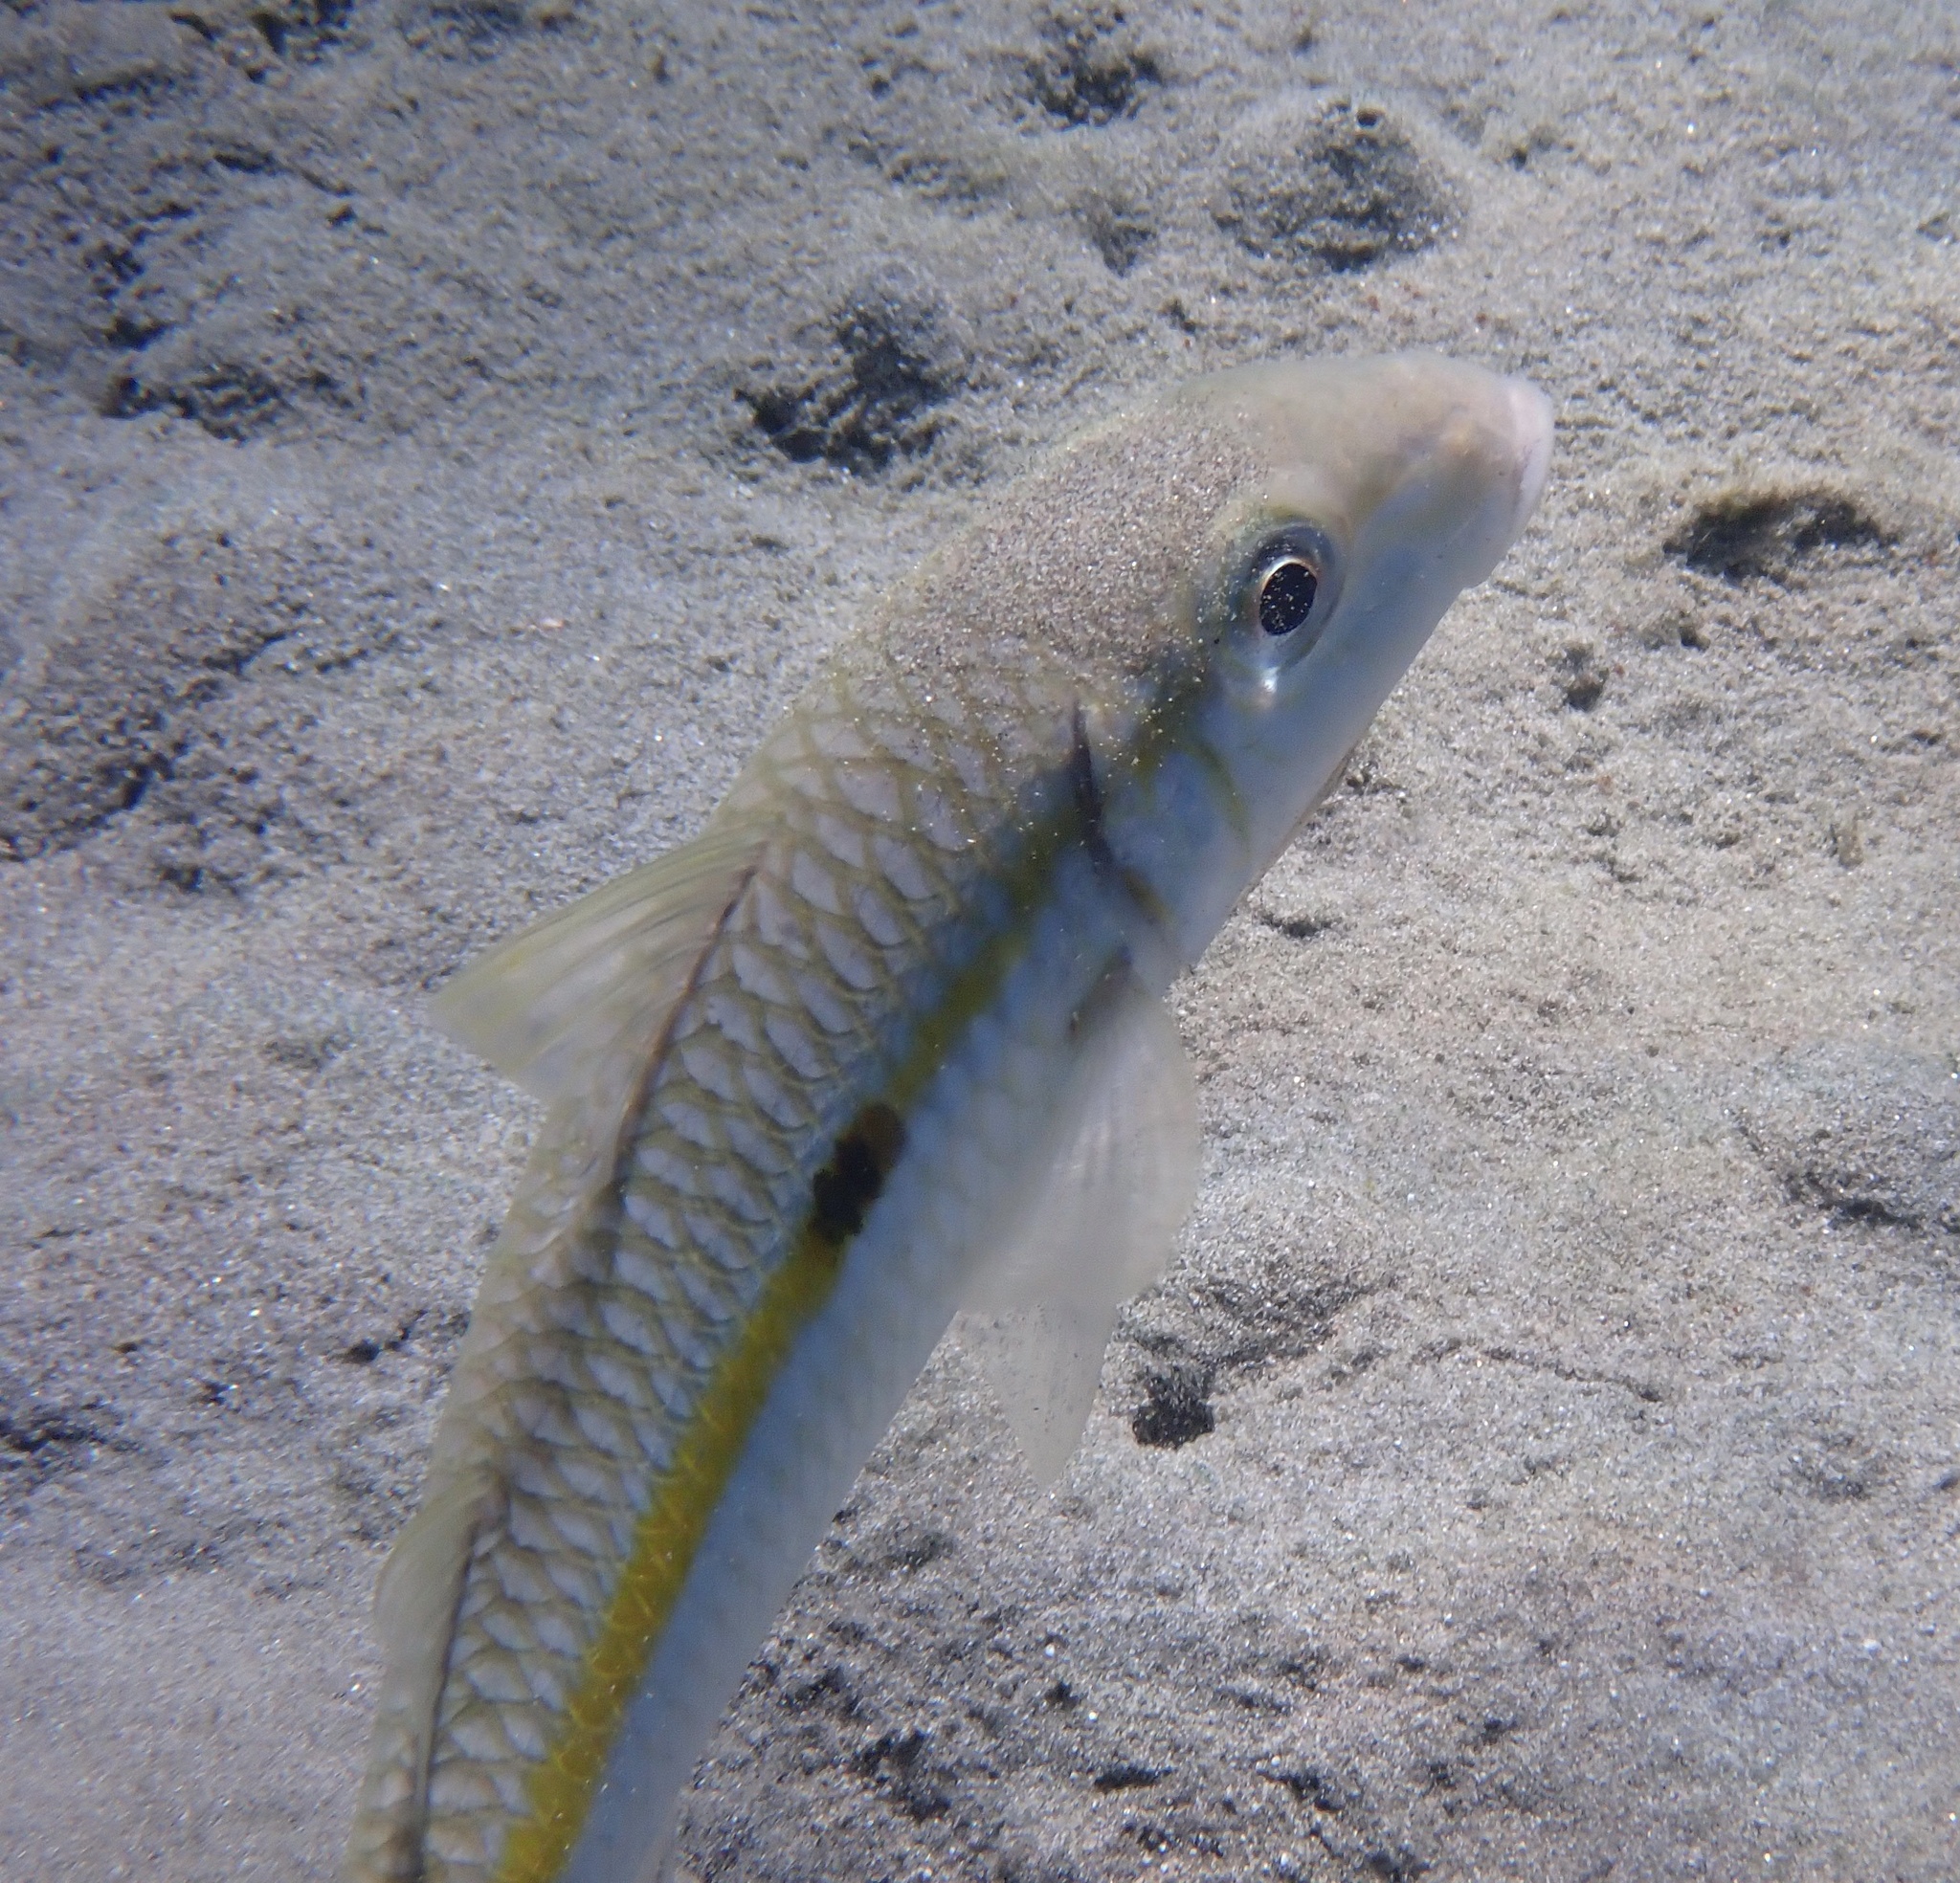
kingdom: Animalia
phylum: Chordata
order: Perciformes
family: Mullidae
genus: Mulloidichthys
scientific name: Mulloidichthys flavolineatus
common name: Yellowstripe goatfish
